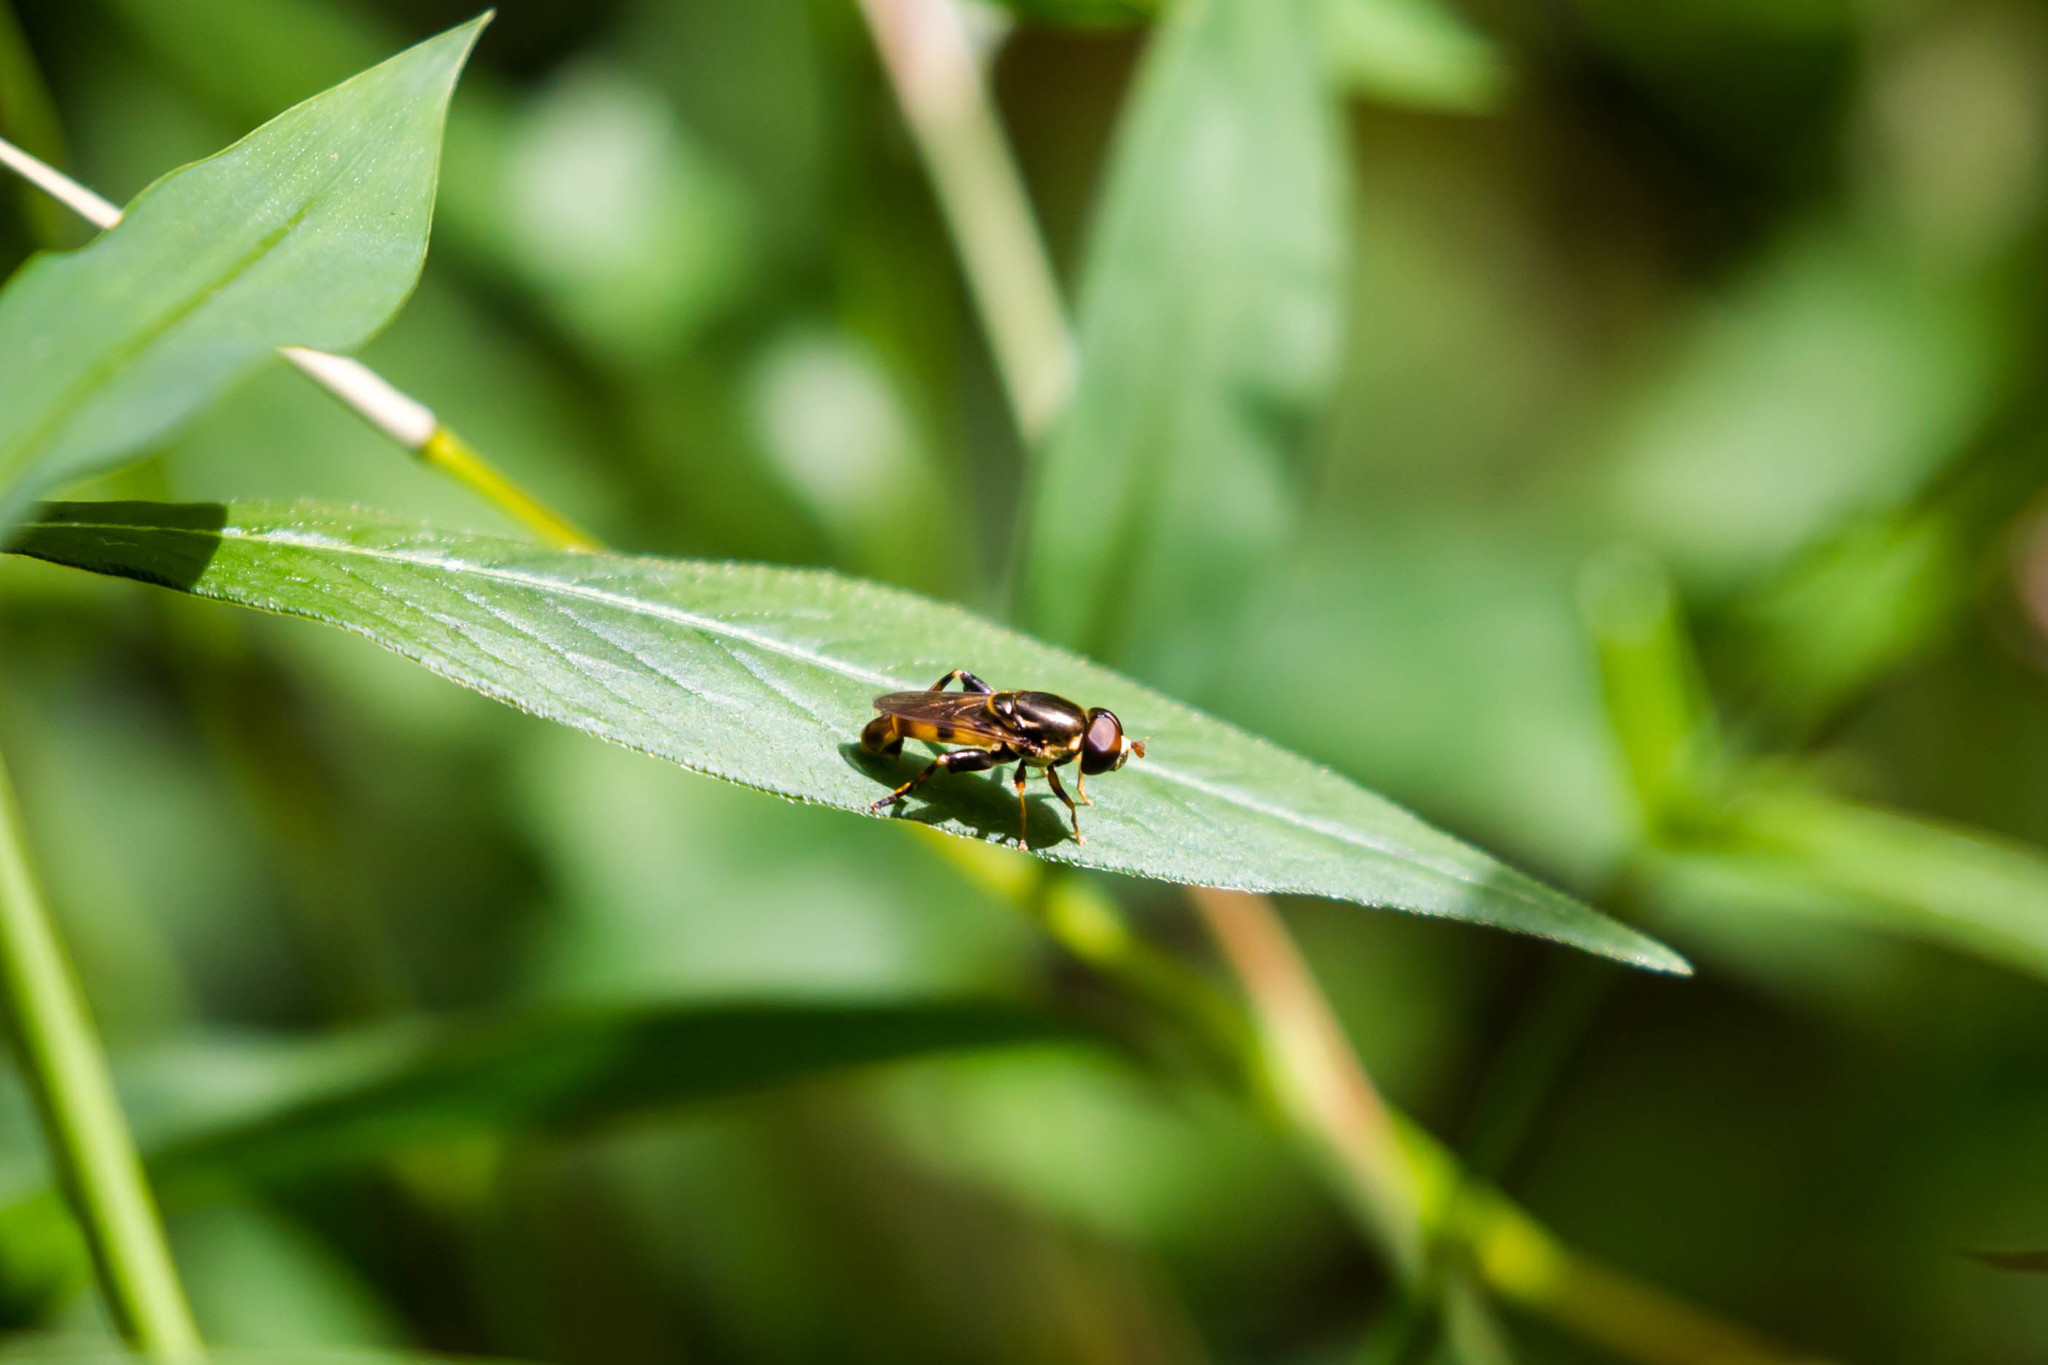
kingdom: Animalia
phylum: Arthropoda
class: Insecta
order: Diptera
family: Syrphidae
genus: Tropidia
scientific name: Tropidia albistylum
